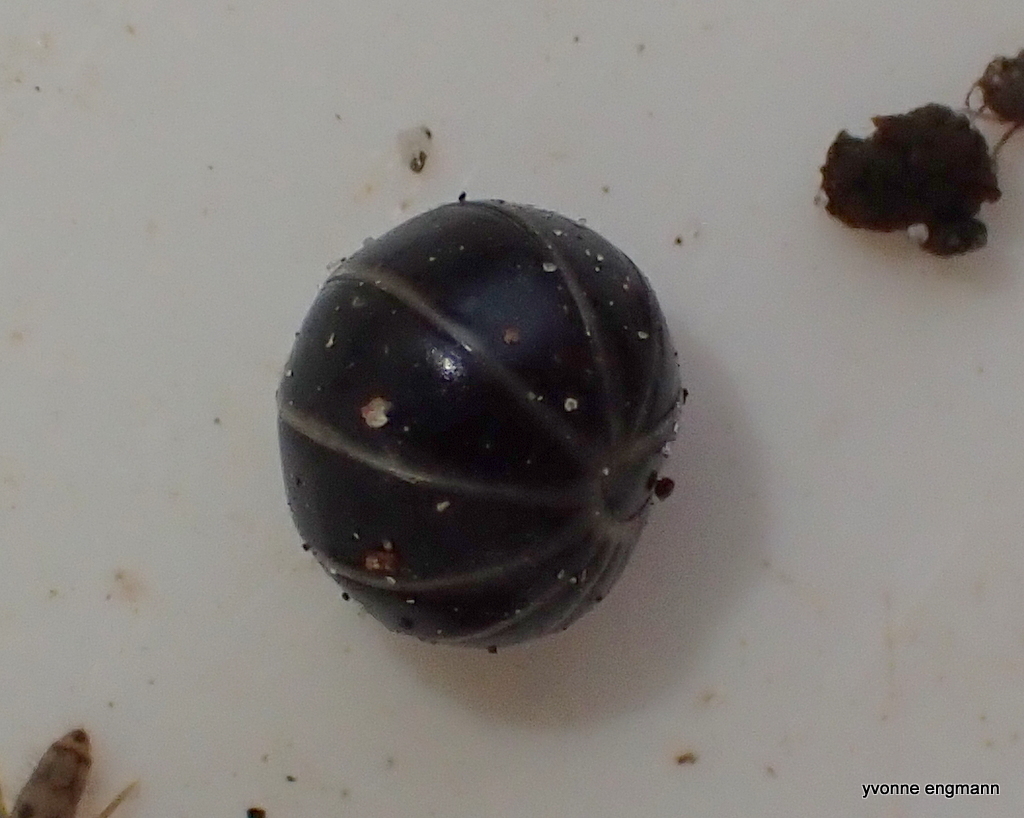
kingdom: Animalia
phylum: Arthropoda
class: Diplopoda
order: Glomerida
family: Glomeridae
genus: Glomeris
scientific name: Glomeris marginata
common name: Bordered pill millipede
